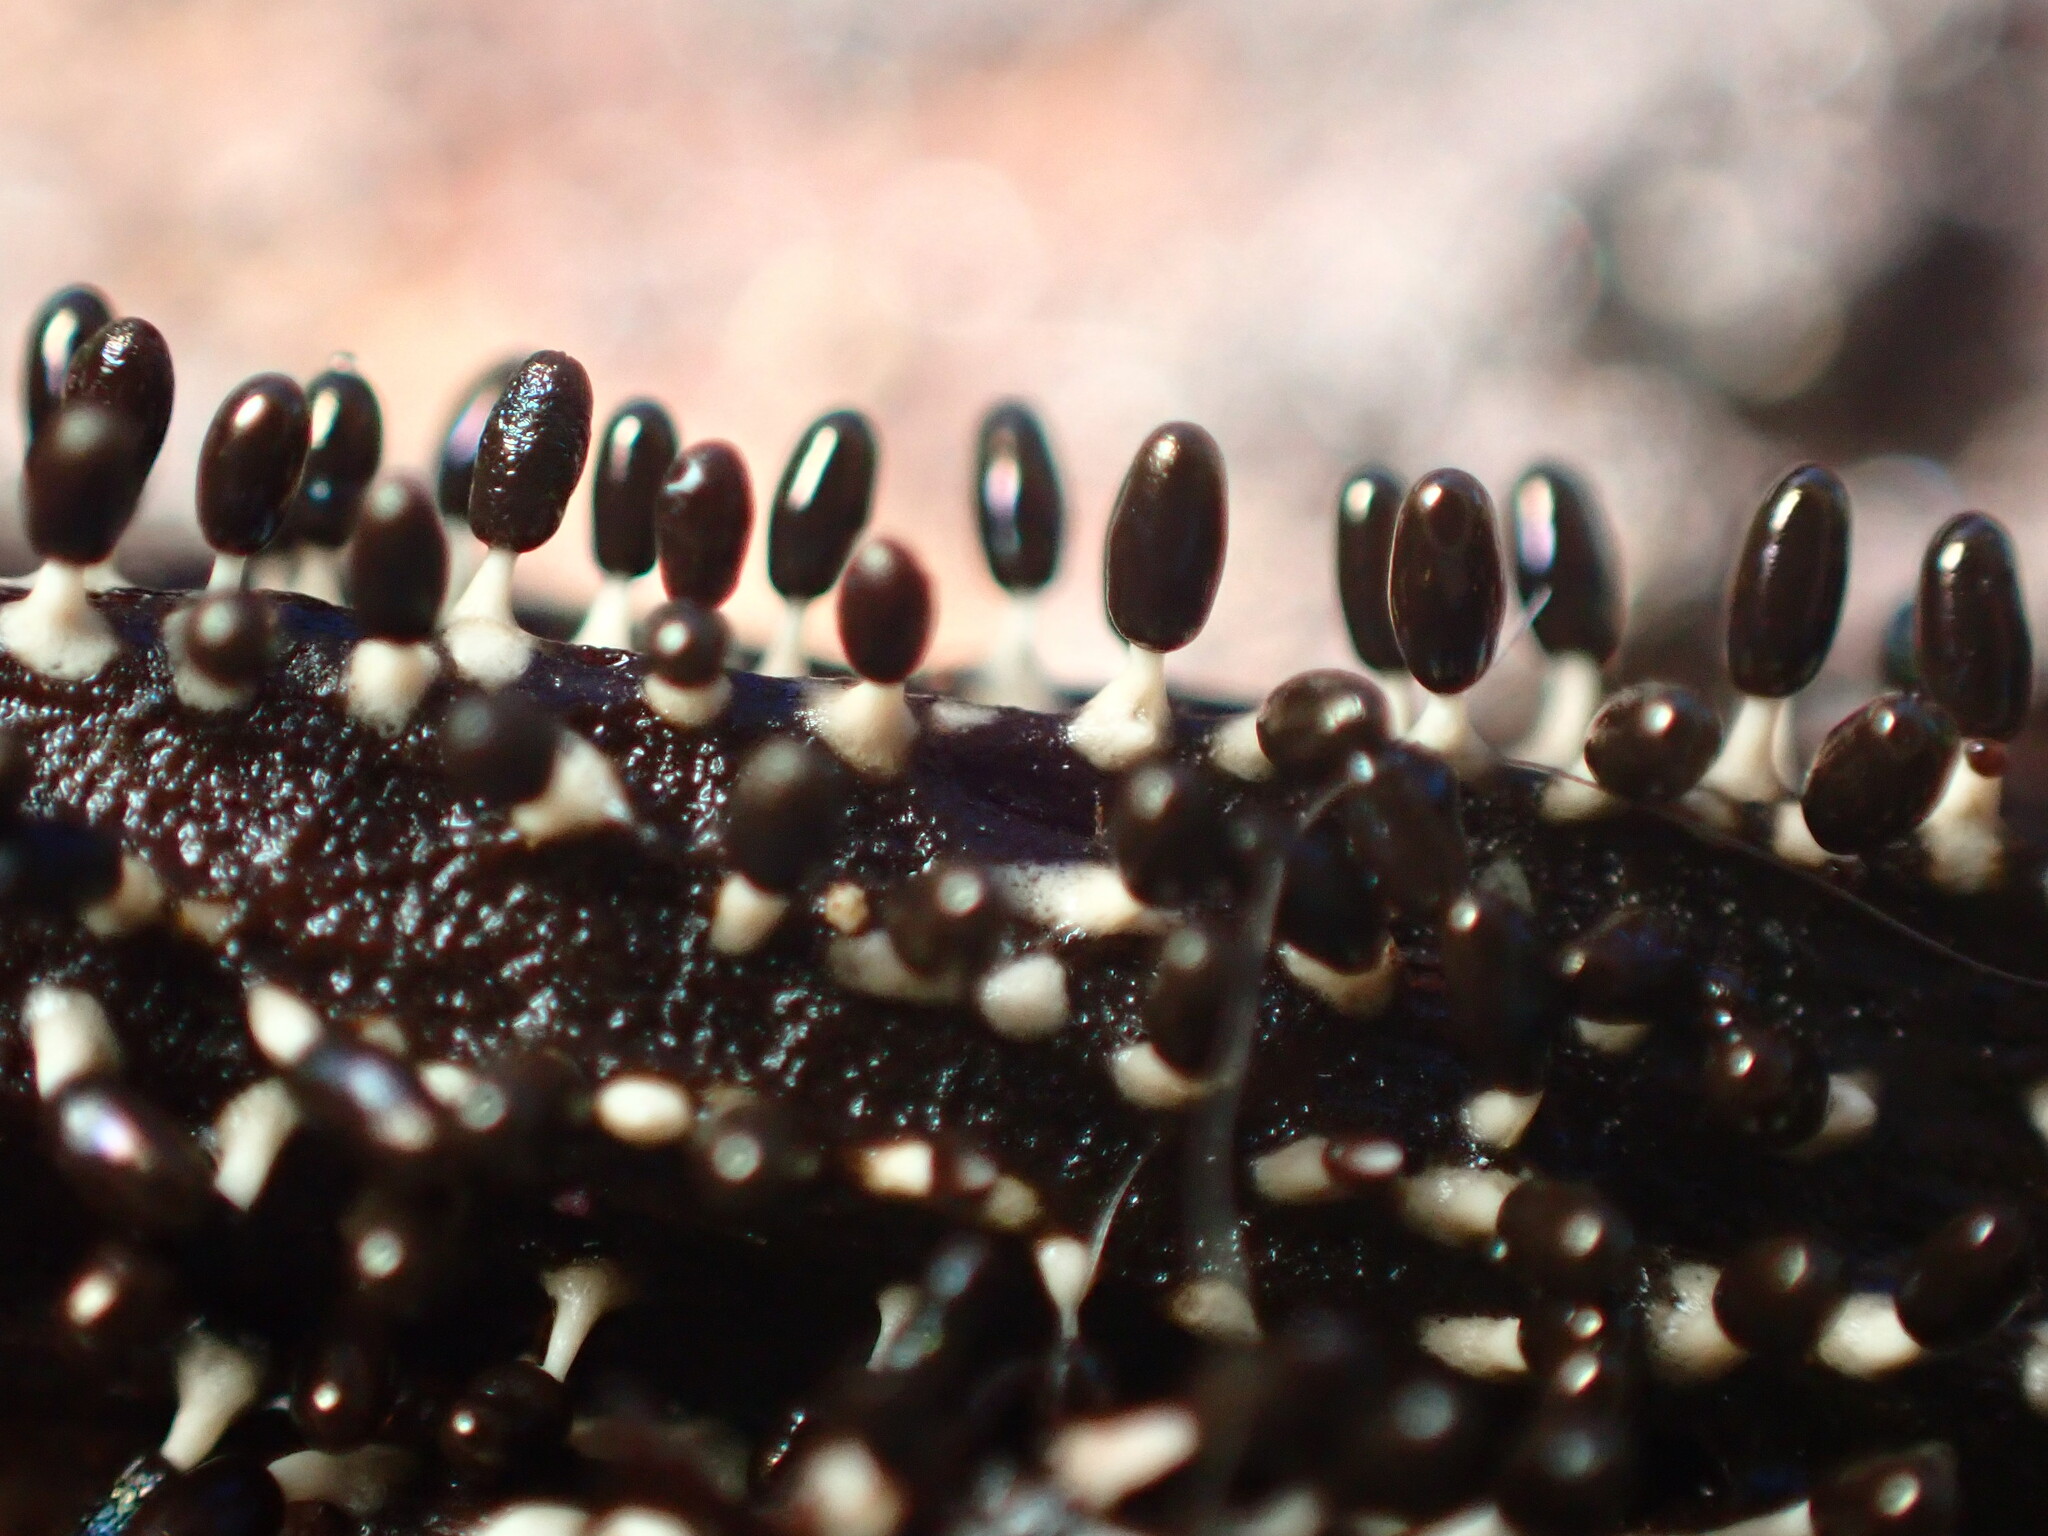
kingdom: Protozoa
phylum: Mycetozoa
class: Myxomycetes
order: Physarales
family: Didymiaceae
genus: Diachea
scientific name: Diachea leucopodia
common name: White-footed slime
